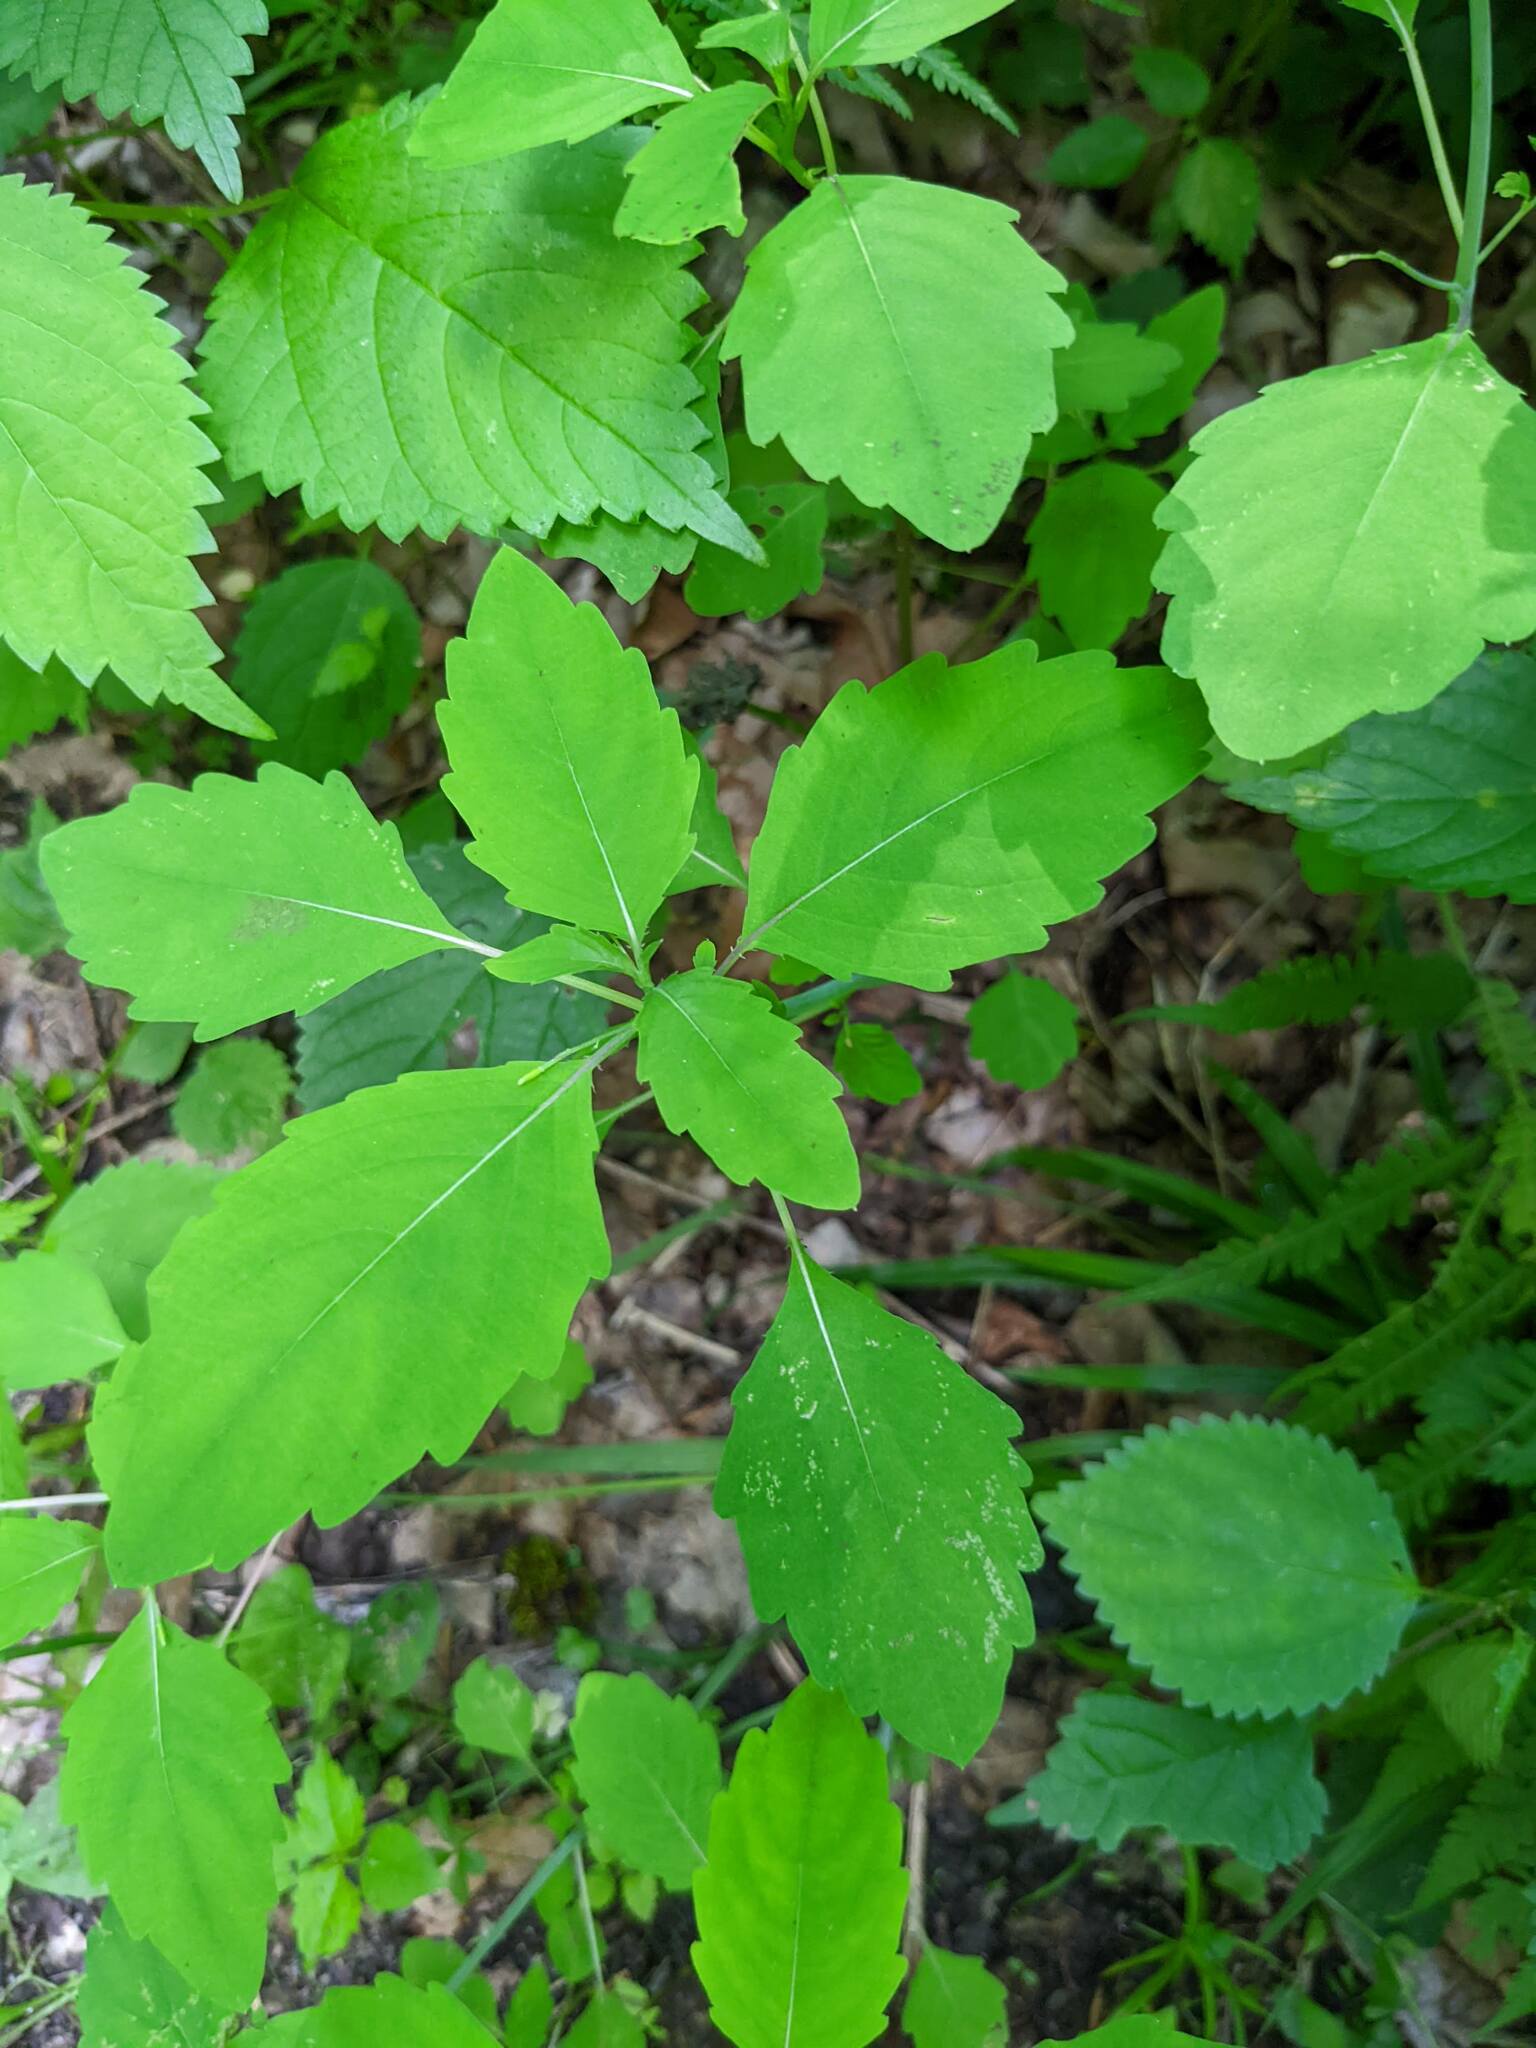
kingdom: Plantae
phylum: Tracheophyta
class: Magnoliopsida
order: Ericales
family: Balsaminaceae
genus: Impatiens
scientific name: Impatiens capensis
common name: Orange balsam
